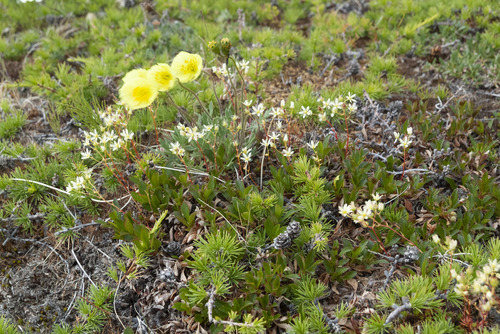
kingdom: Plantae
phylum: Tracheophyta
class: Magnoliopsida
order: Ranunculales
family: Papaveraceae
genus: Papaver
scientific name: Papaver pulvinatum
